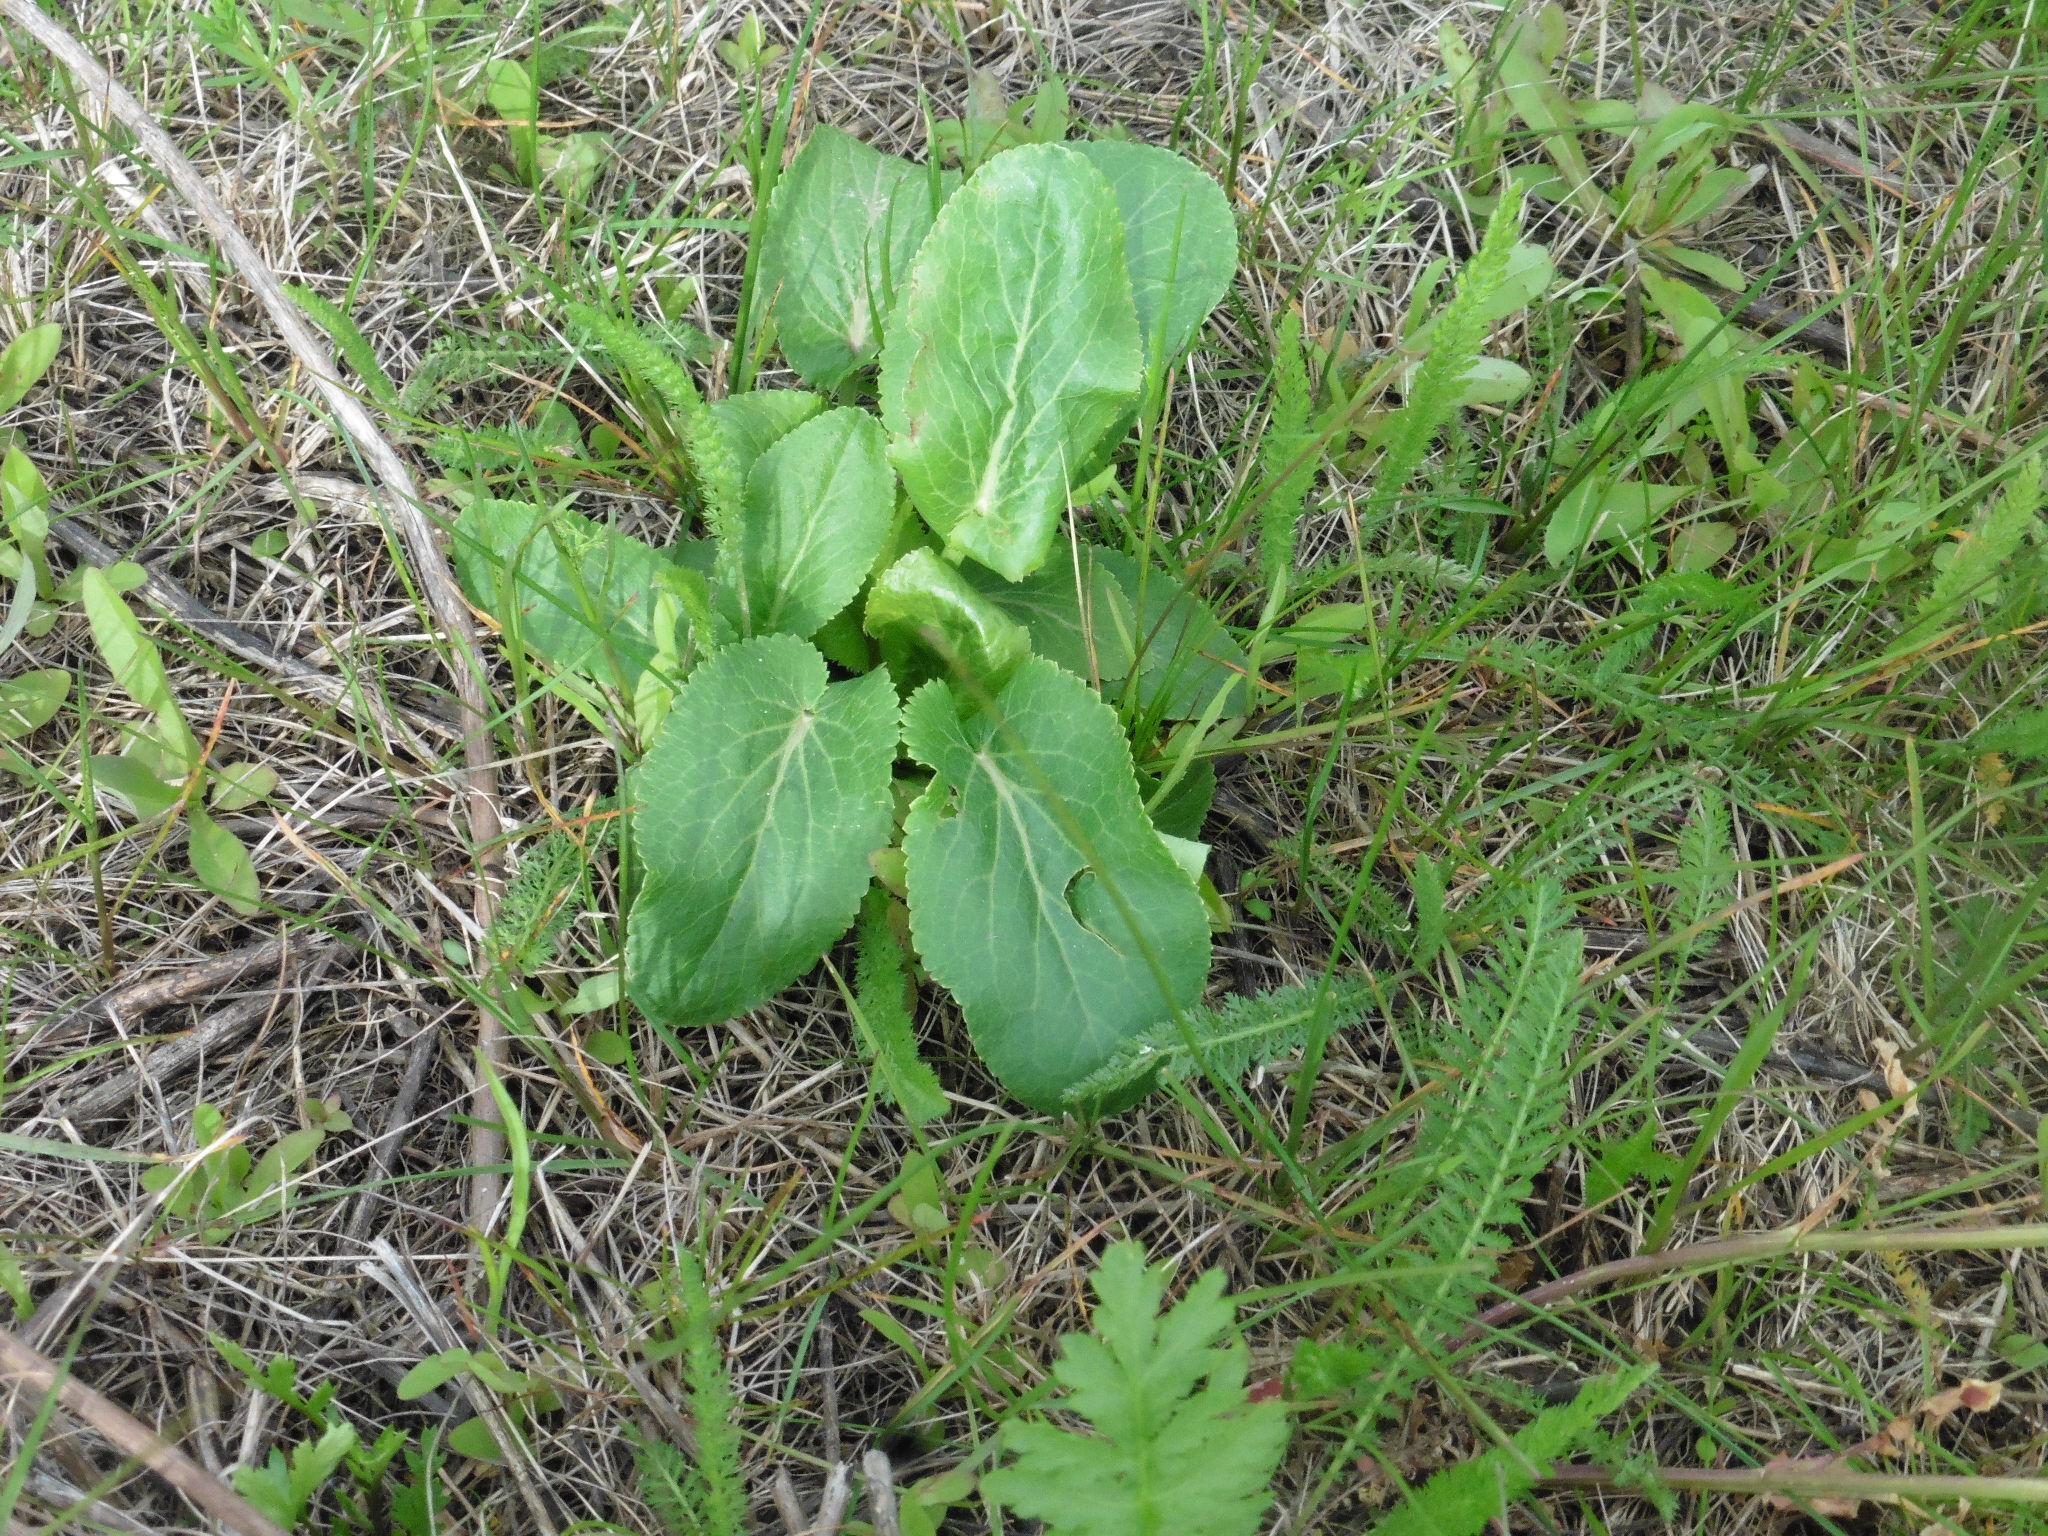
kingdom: Plantae
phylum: Tracheophyta
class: Magnoliopsida
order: Apiales
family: Apiaceae
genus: Eryngium
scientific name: Eryngium planum
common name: Blue eryngo
